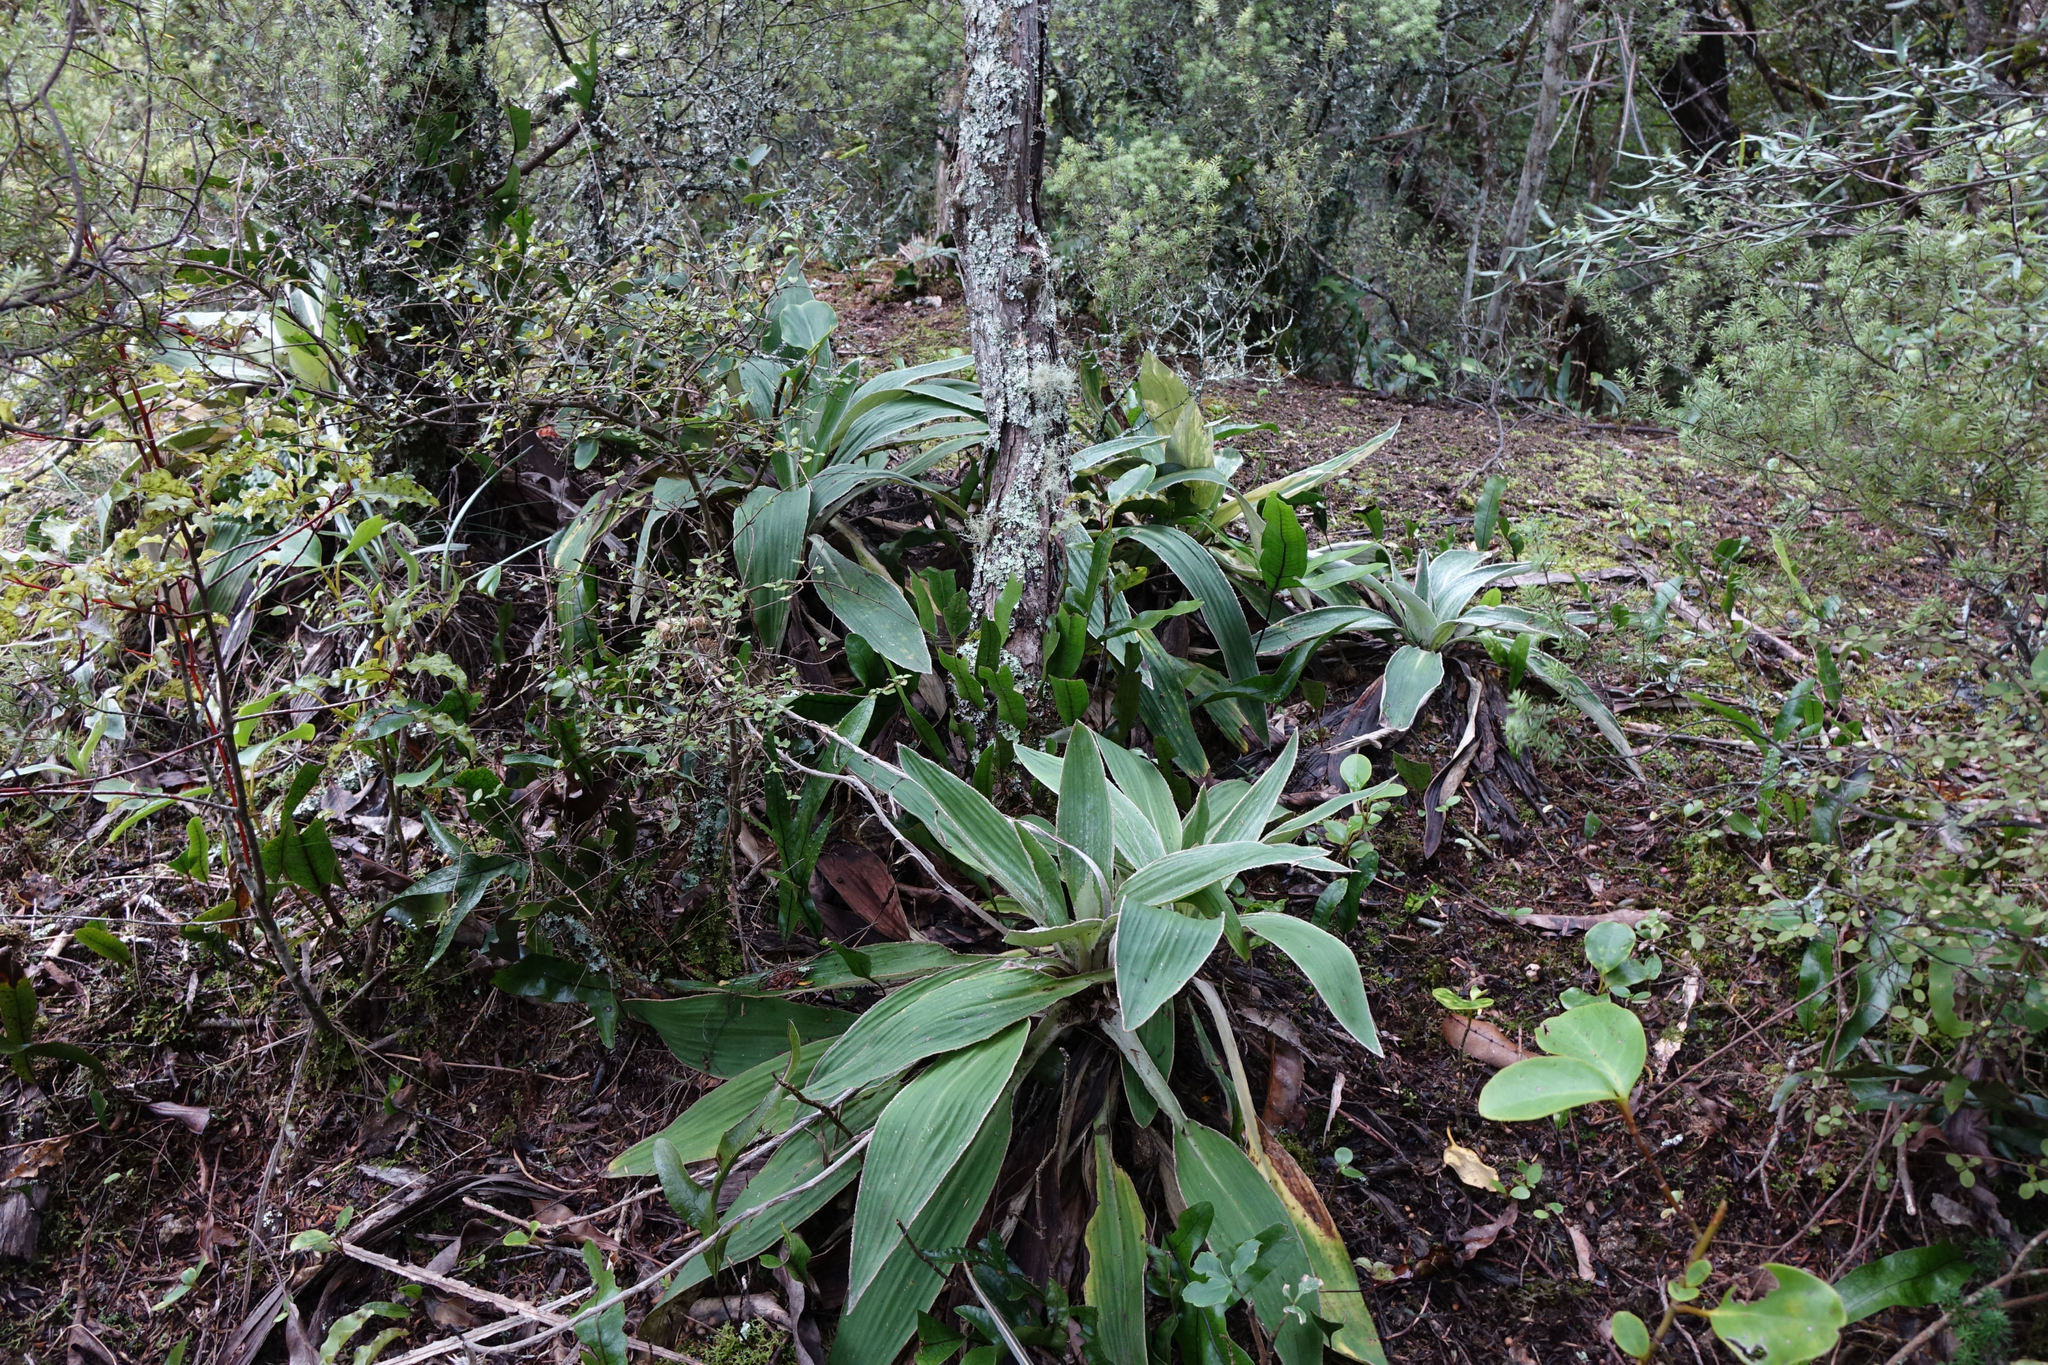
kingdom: Plantae
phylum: Tracheophyta
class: Magnoliopsida
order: Asterales
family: Asteraceae
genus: Celmisia
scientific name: Celmisia hookeri
